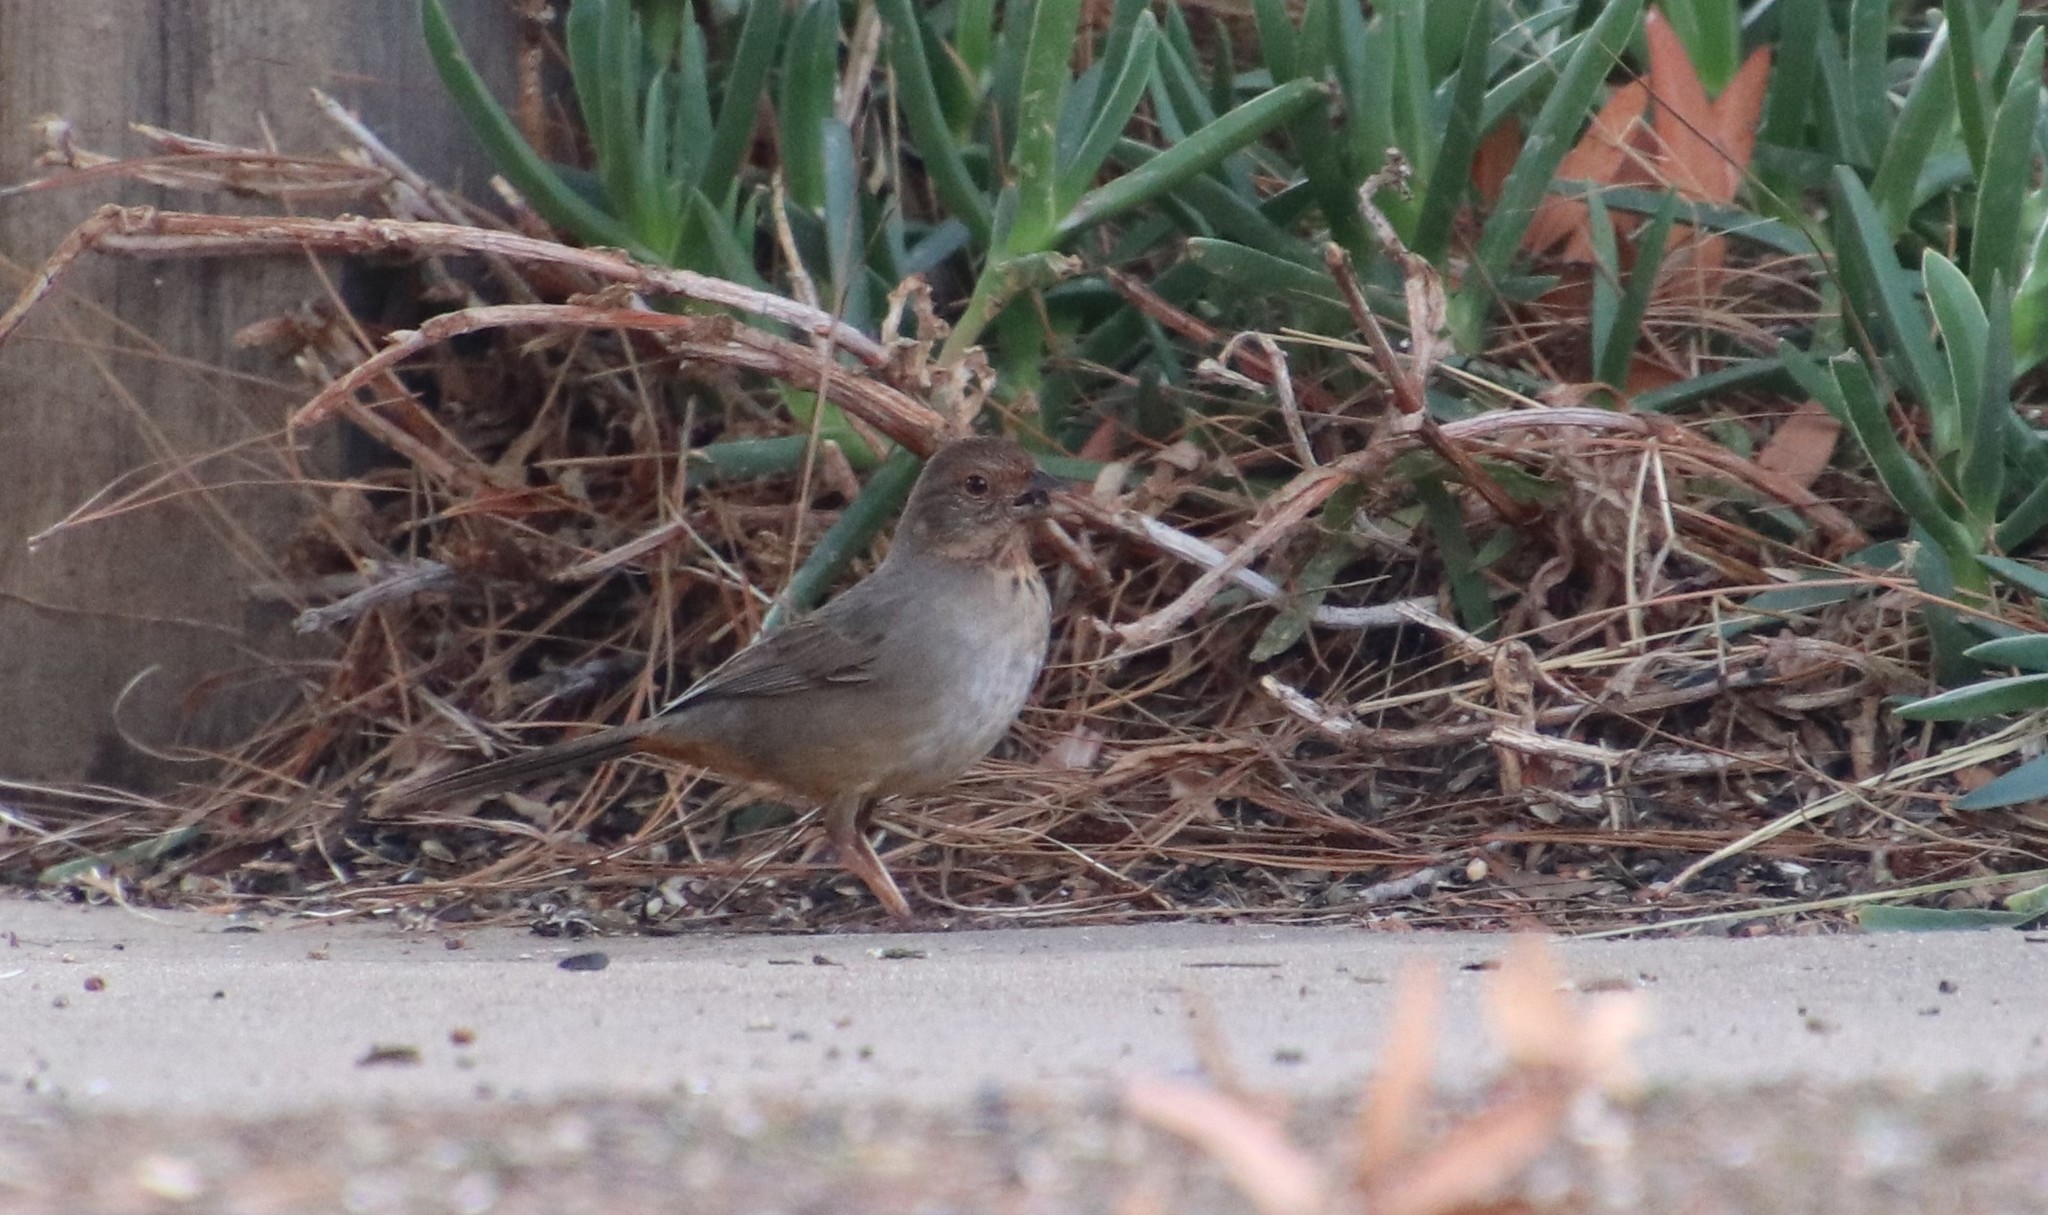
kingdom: Animalia
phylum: Chordata
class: Aves
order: Passeriformes
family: Passerellidae
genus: Melozone
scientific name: Melozone crissalis
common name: California towhee
